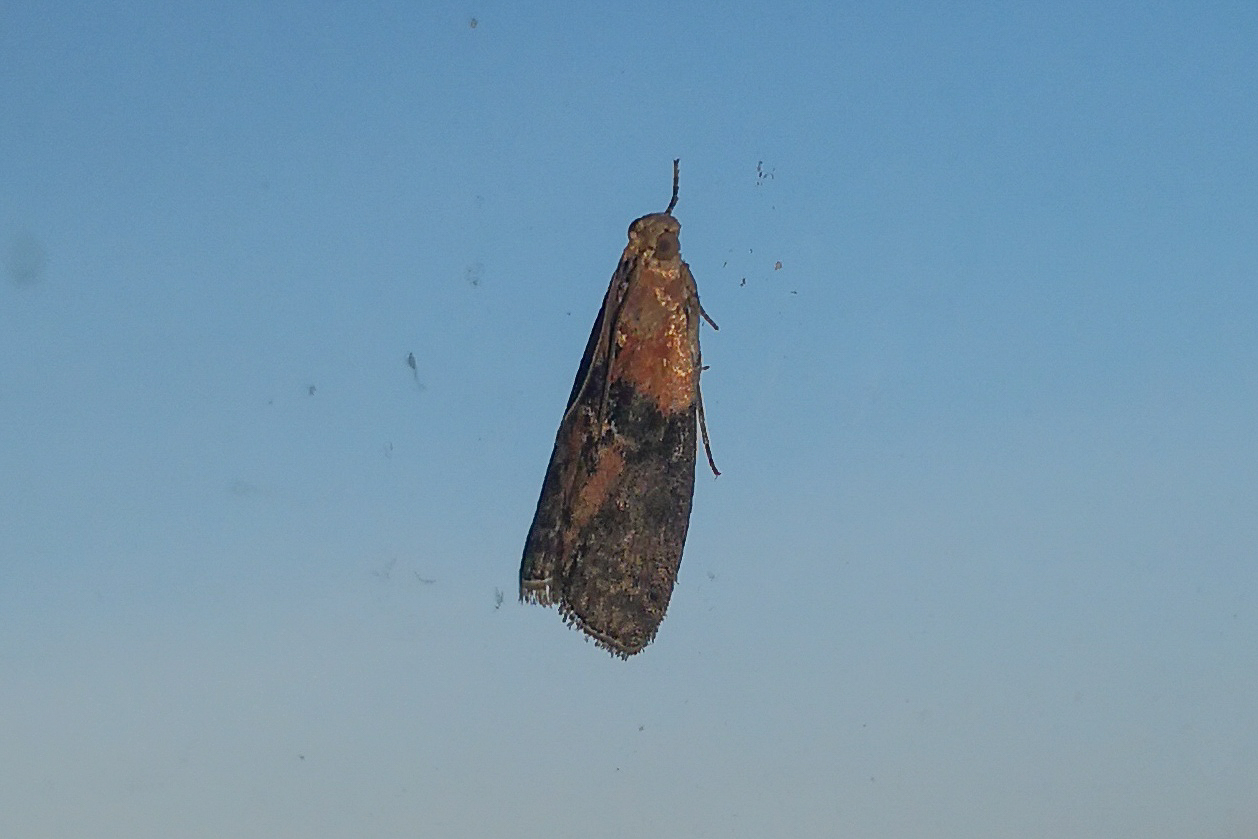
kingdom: Animalia
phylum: Arthropoda
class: Insecta
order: Lepidoptera
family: Pyralidae
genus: Sciota
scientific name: Sciota adelphella
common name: Willow knot-horn
